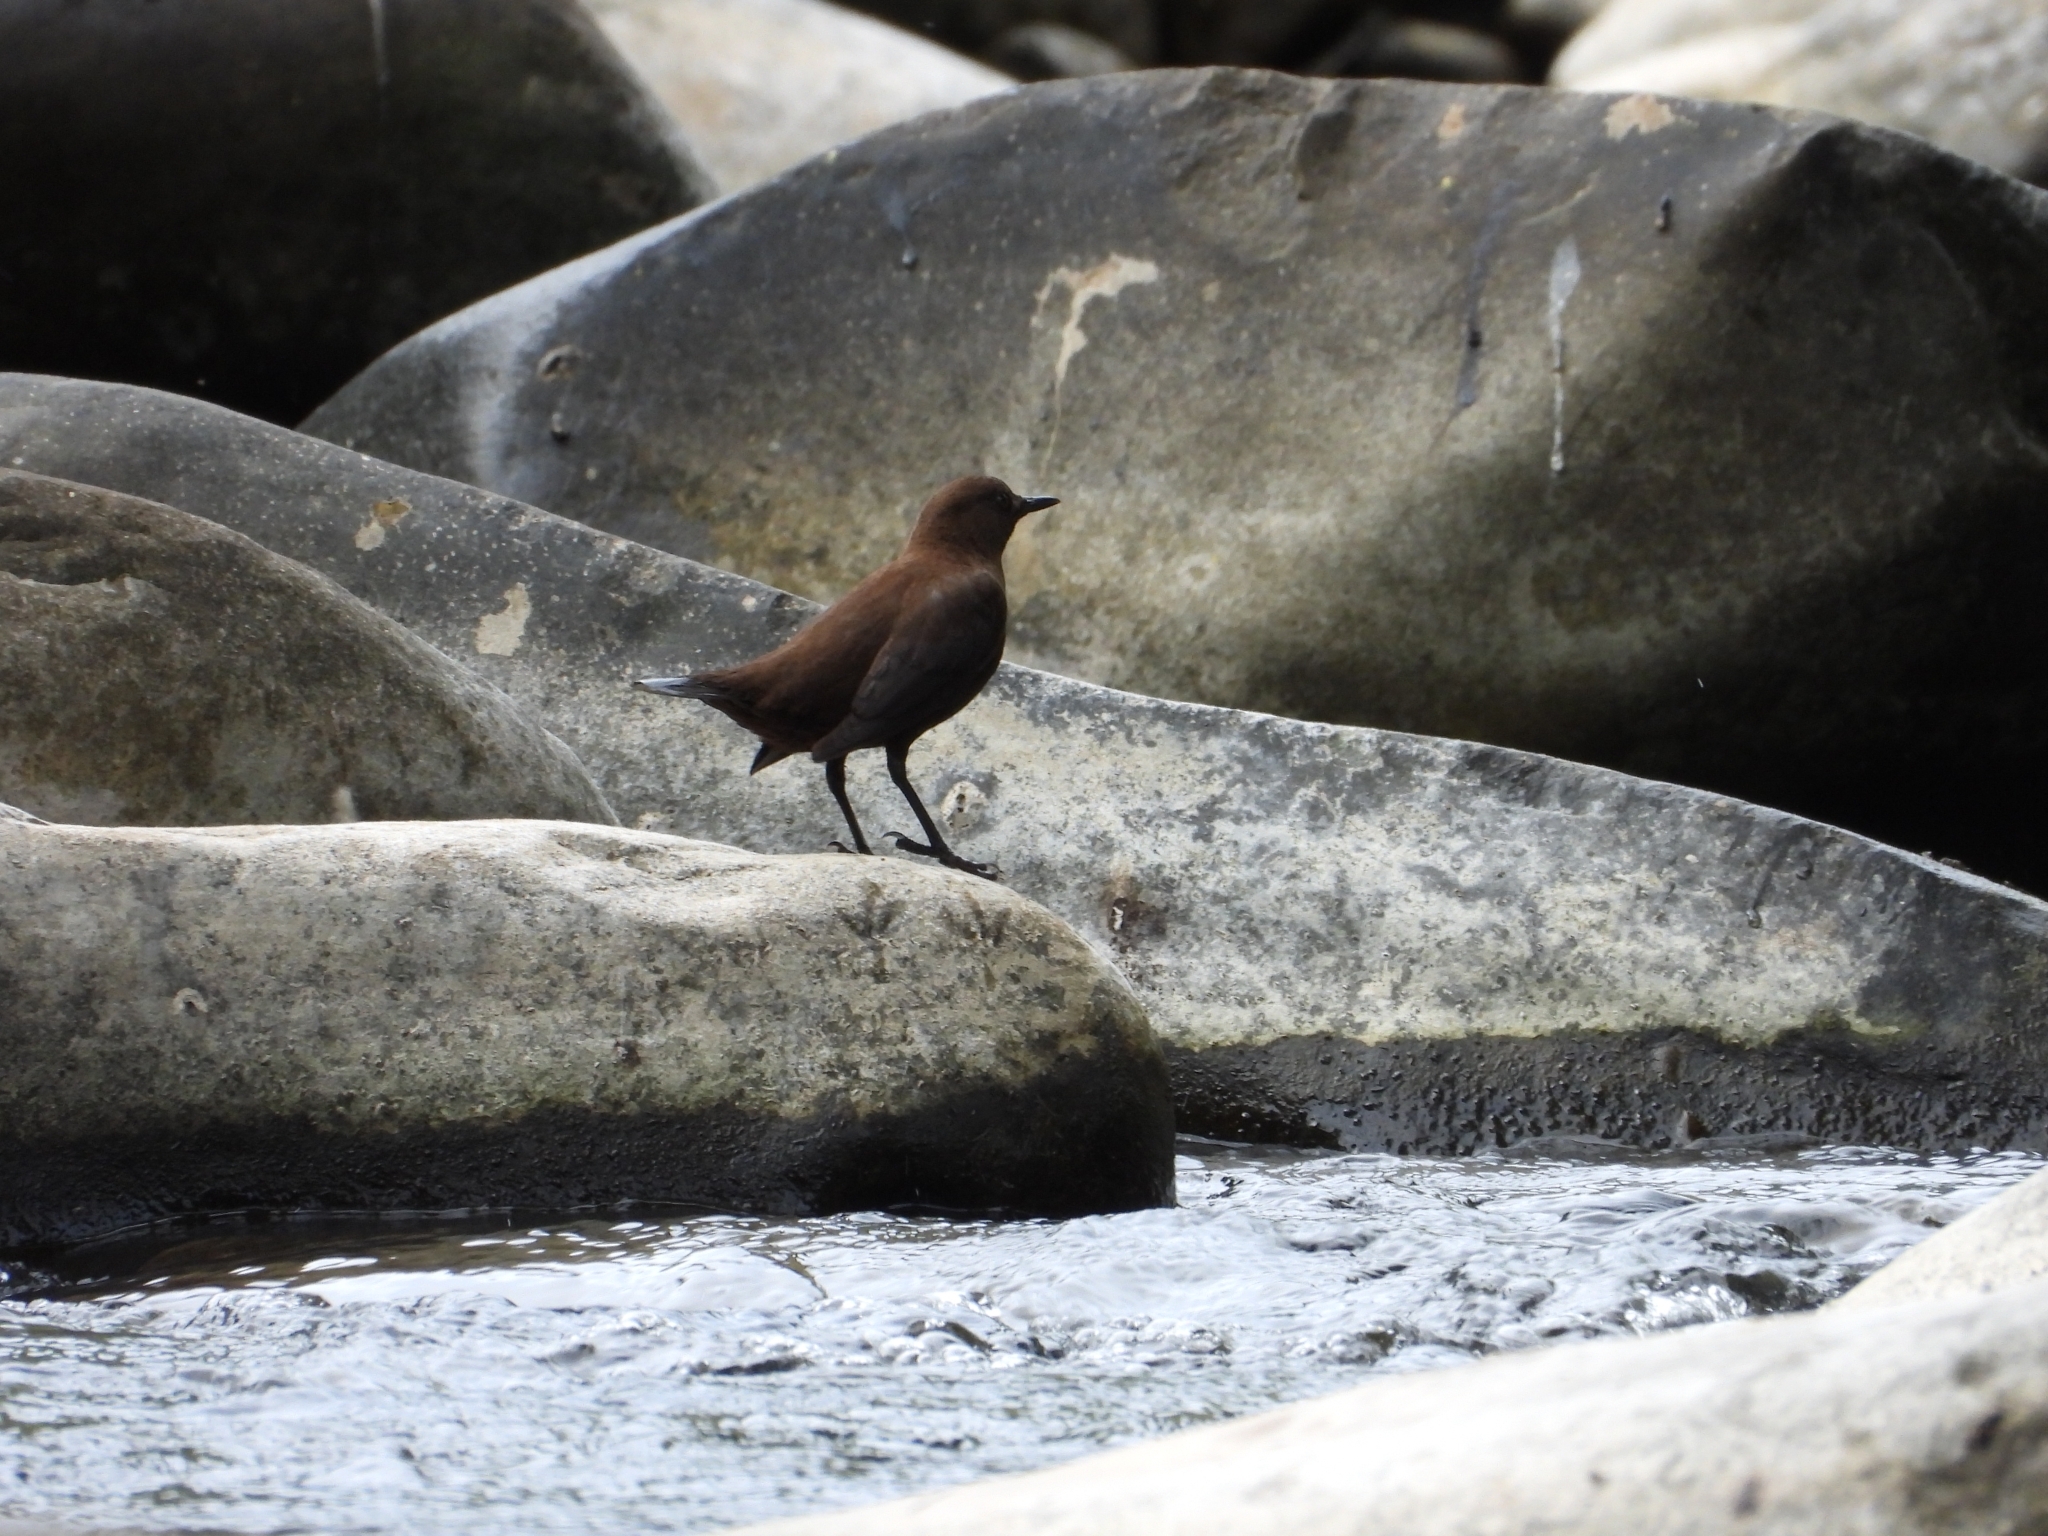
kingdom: Animalia
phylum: Chordata
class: Aves
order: Passeriformes
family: Cinclidae
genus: Cinclus
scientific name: Cinclus pallasii
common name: Brown dipper
